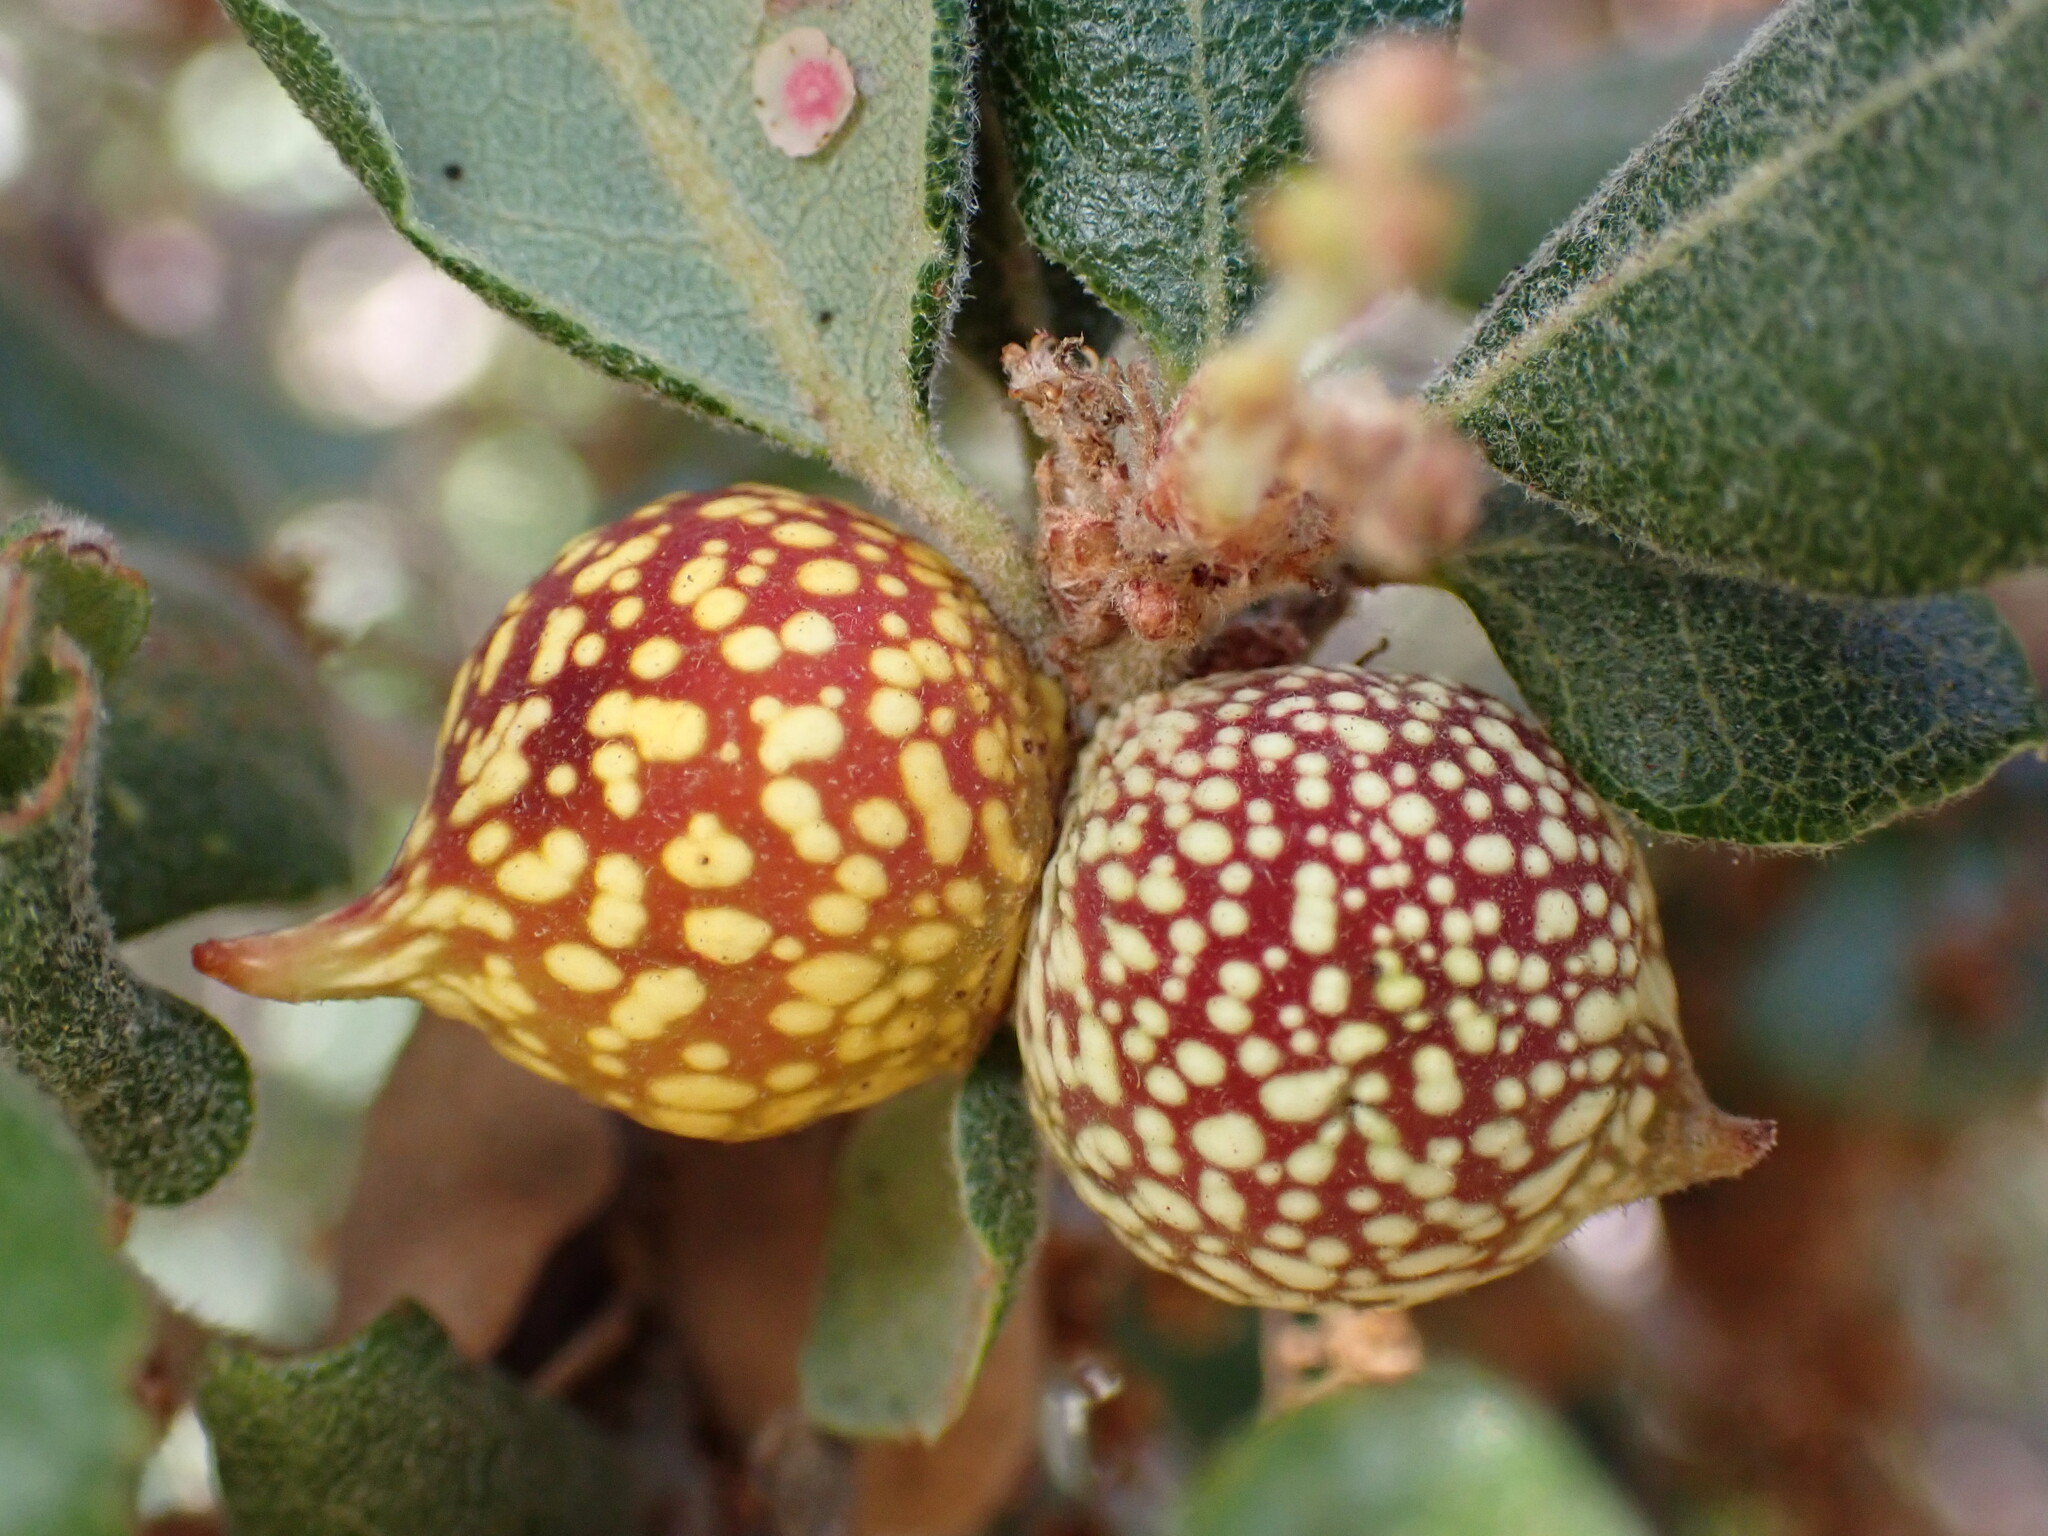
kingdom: Animalia
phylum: Arthropoda
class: Insecta
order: Hymenoptera
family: Cynipidae
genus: Burnettweldia
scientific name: Burnettweldia
